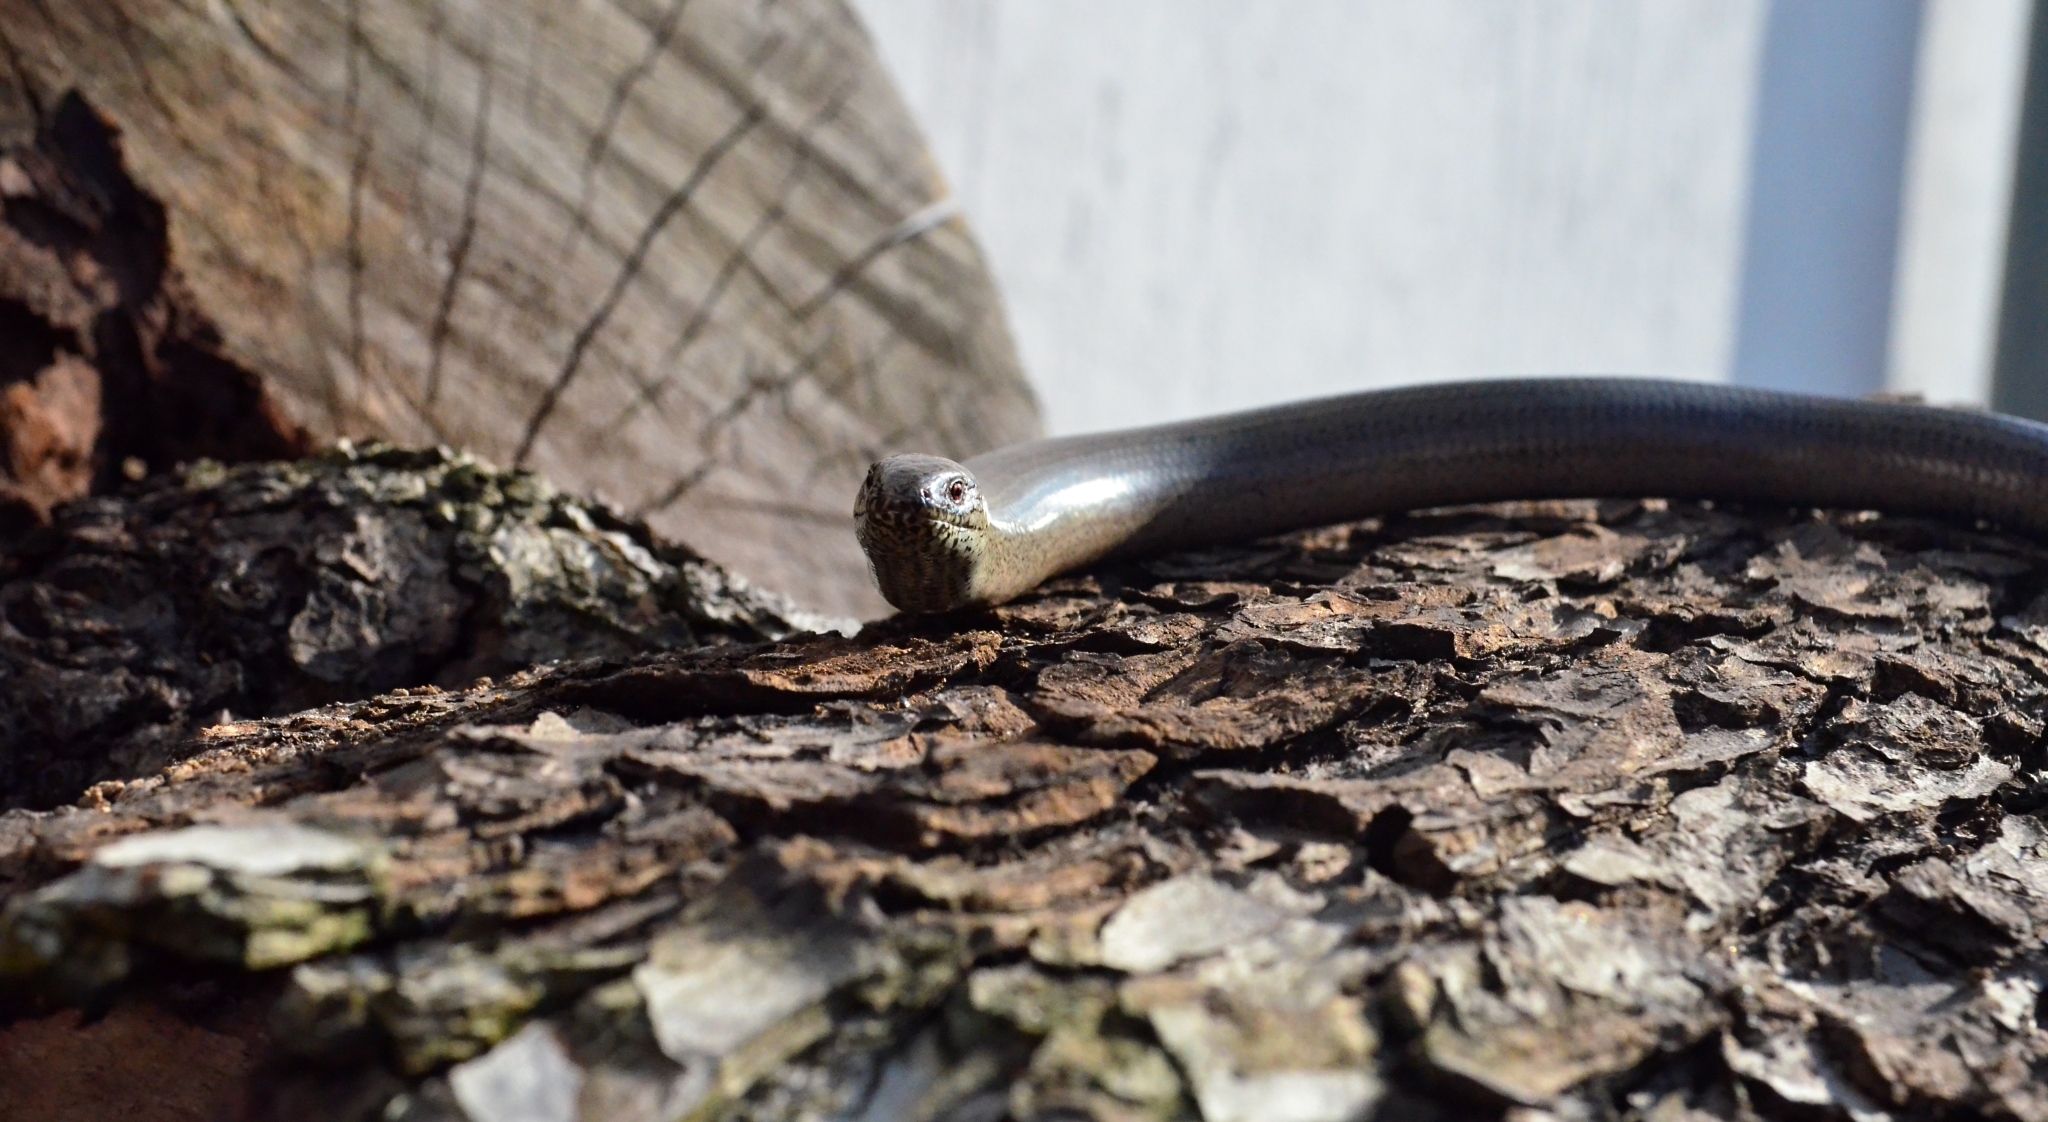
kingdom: Animalia
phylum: Chordata
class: Squamata
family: Anguidae
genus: Anguis
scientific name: Anguis fragilis
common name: Slow worm
